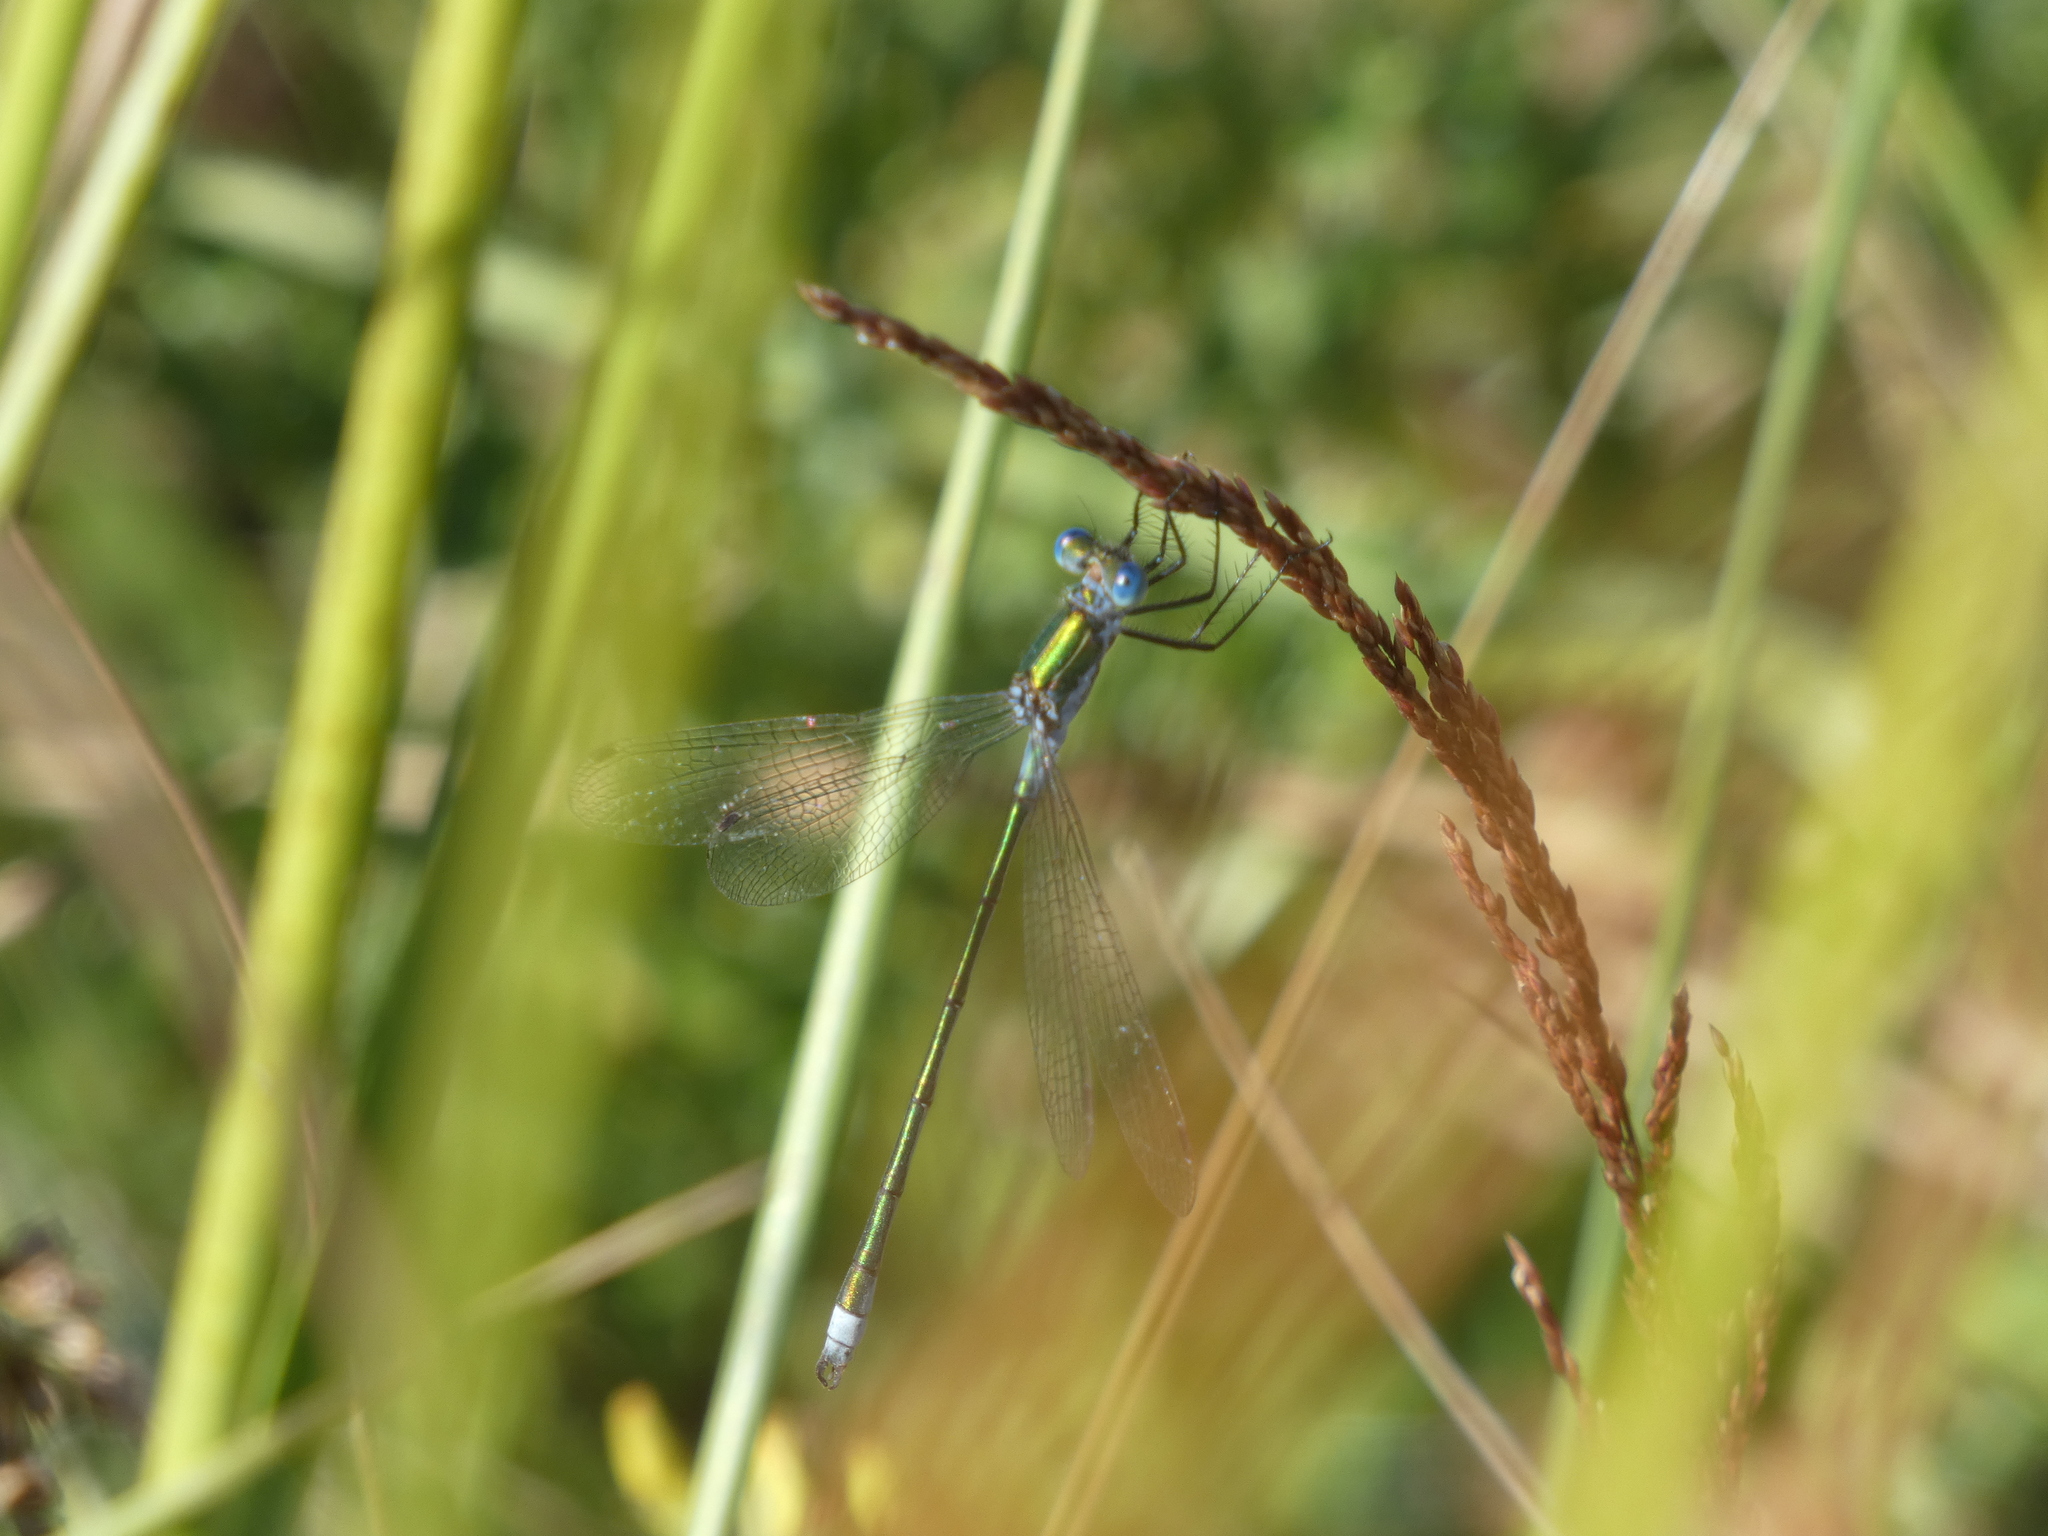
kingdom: Animalia
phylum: Arthropoda
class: Insecta
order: Odonata
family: Lestidae
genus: Lestes
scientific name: Lestes dryas
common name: Scarce emerald damselfly
